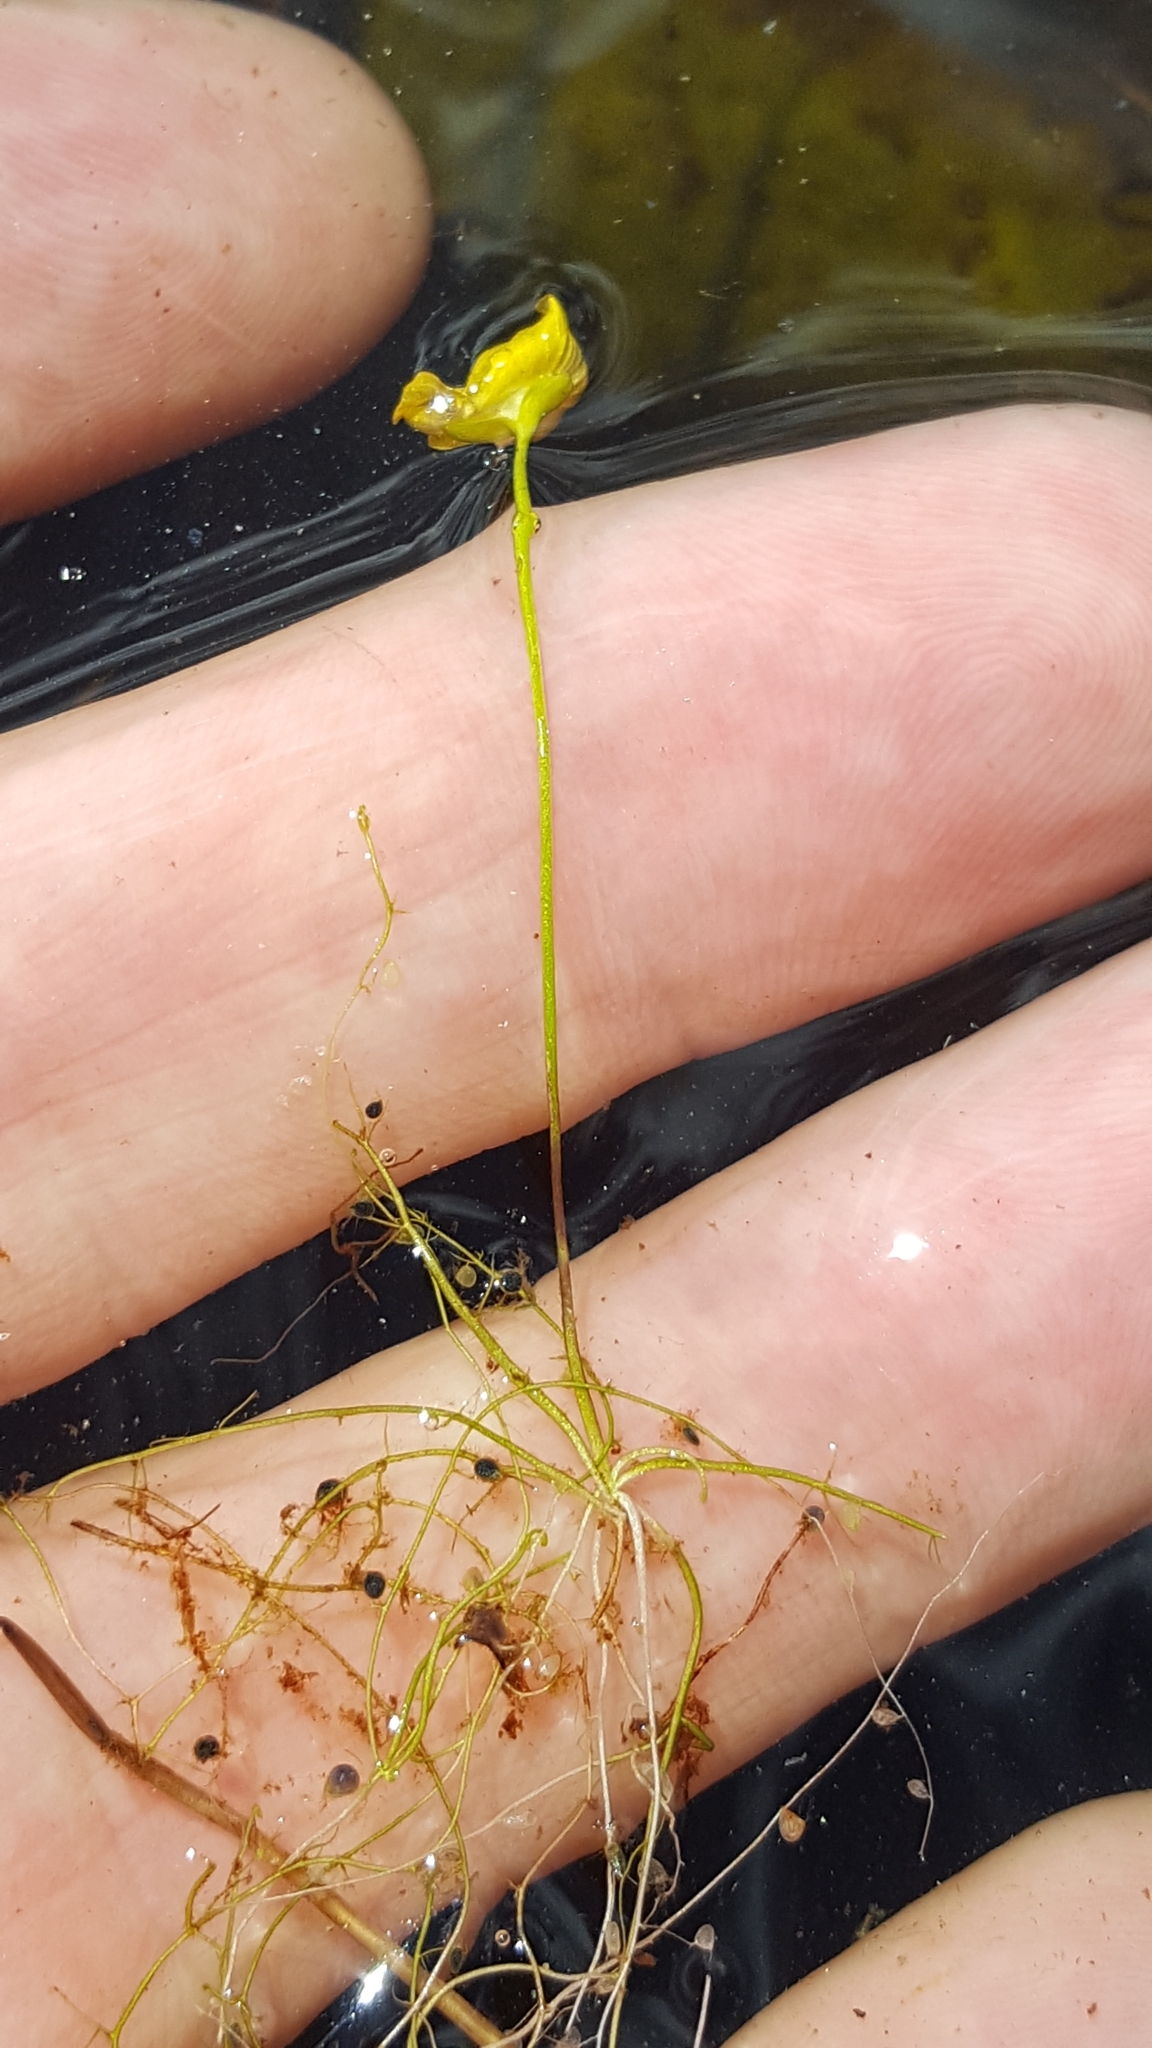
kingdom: Plantae
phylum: Tracheophyta
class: Magnoliopsida
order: Lamiales
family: Lentibulariaceae
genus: Utricularia
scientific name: Utricularia gibba
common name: Humped bladderwort
